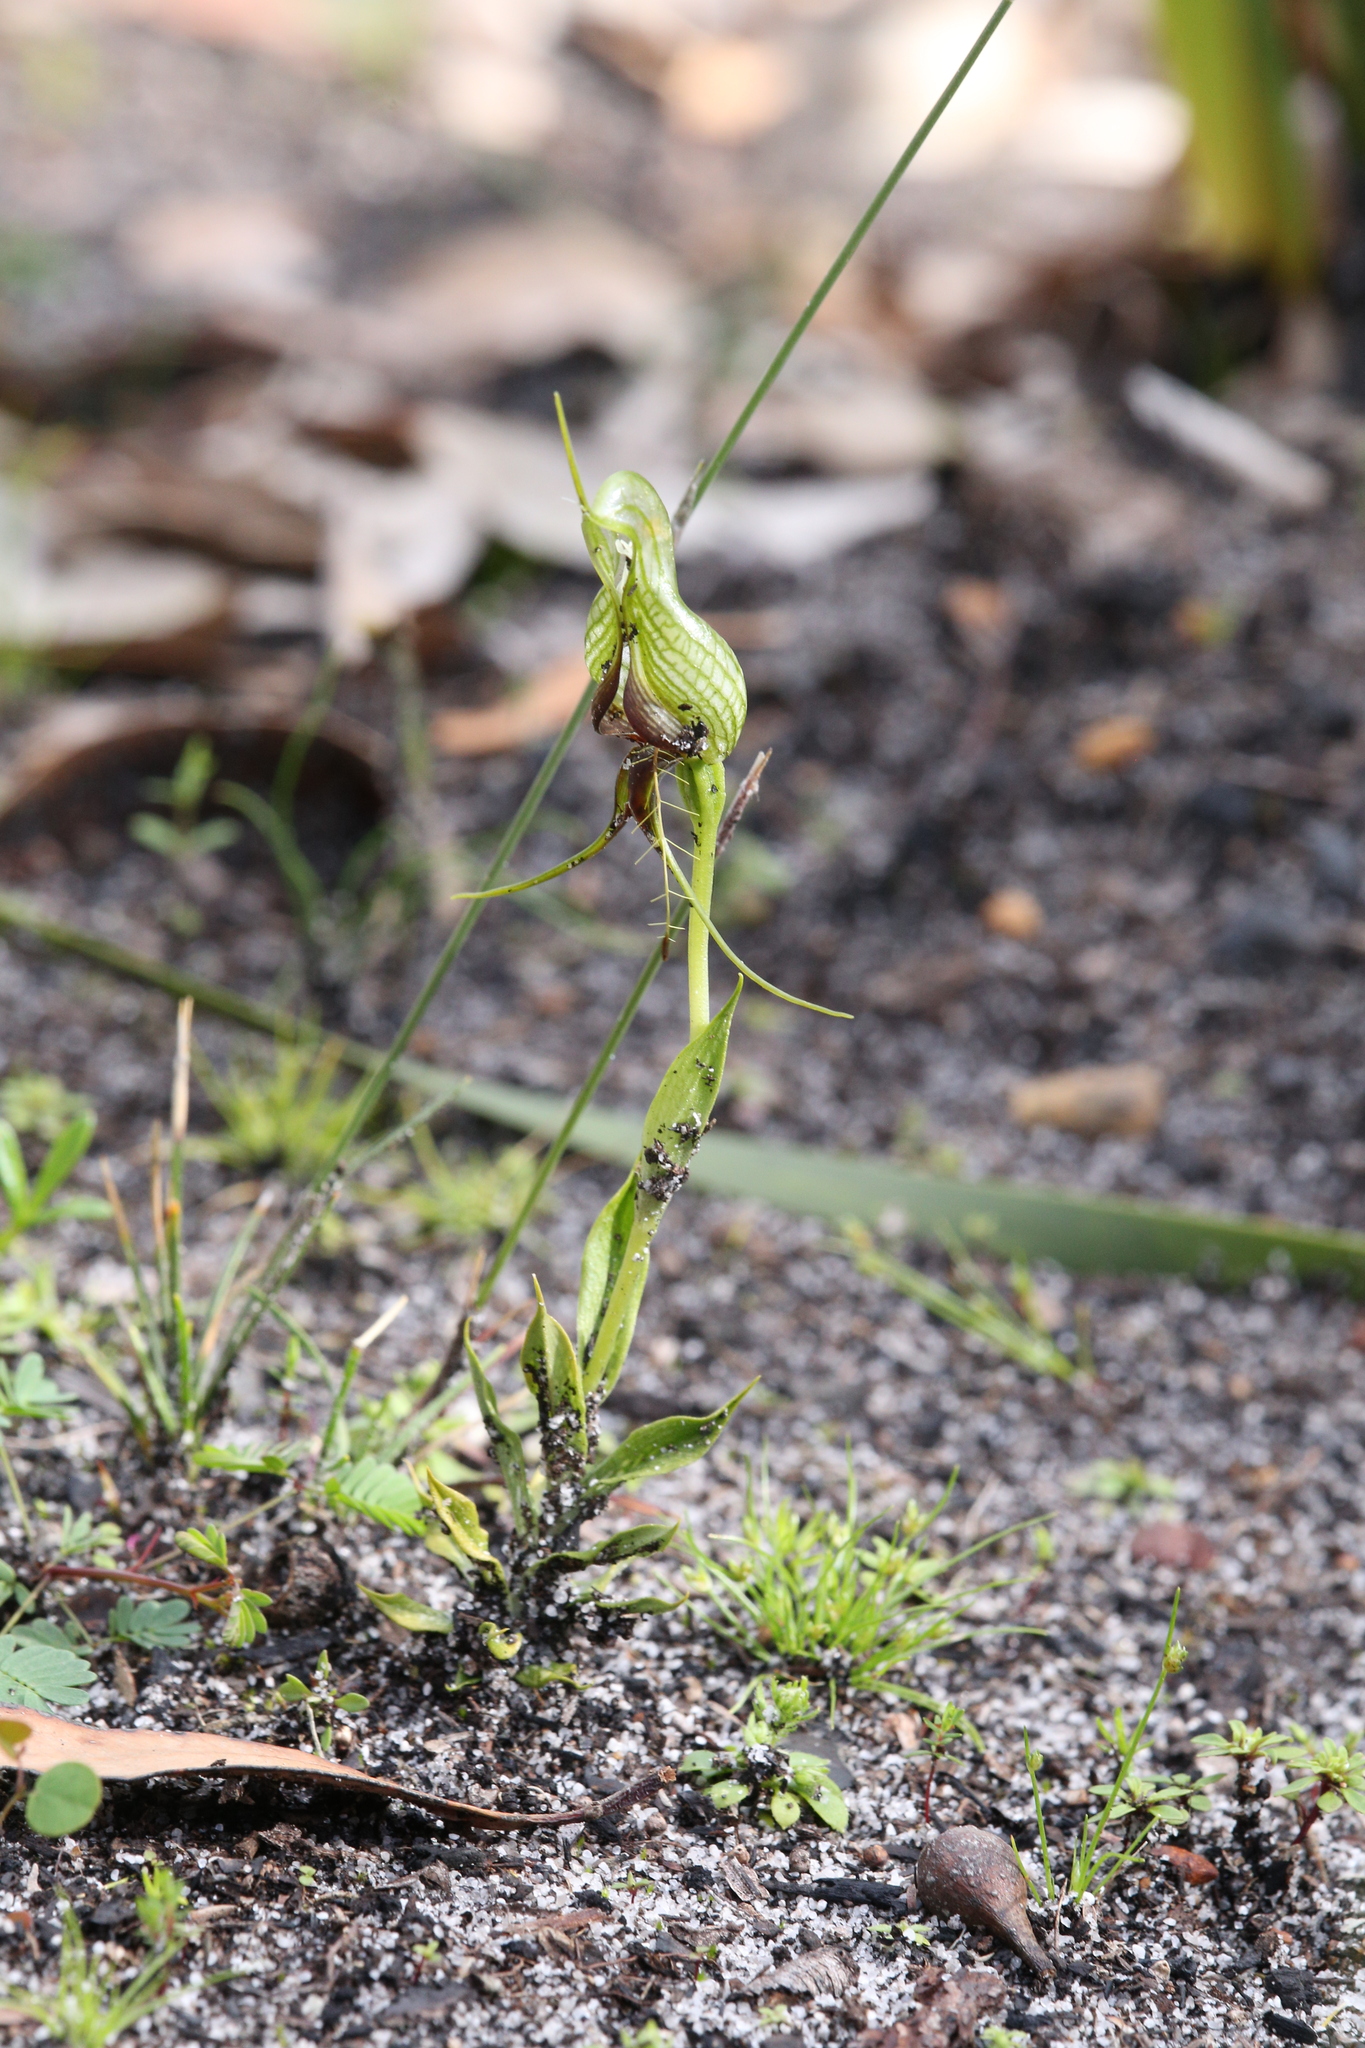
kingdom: Plantae
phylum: Tracheophyta
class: Liliopsida
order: Asparagales
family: Orchidaceae
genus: Pterostylis
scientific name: Pterostylis barbata
